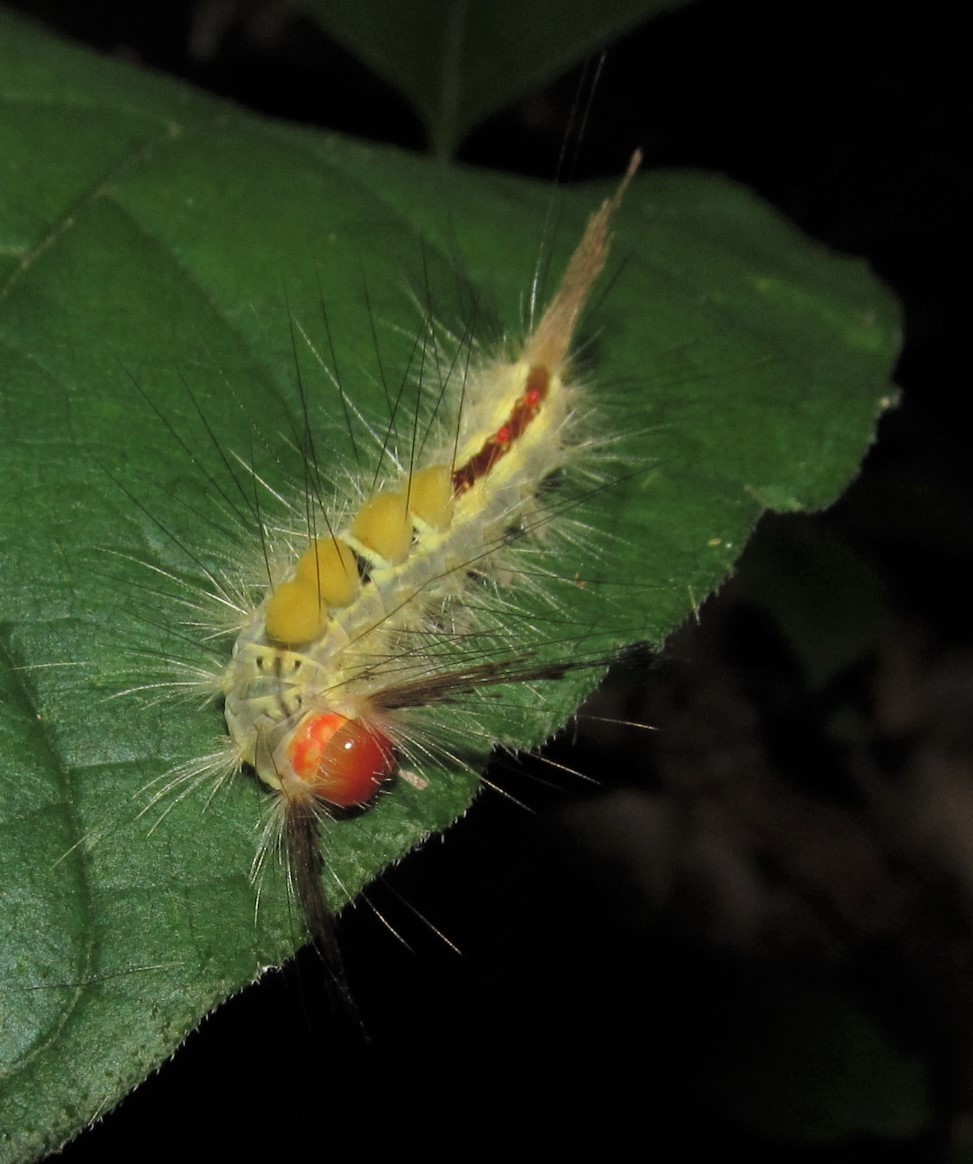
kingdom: Animalia
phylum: Arthropoda
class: Insecta
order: Lepidoptera
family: Erebidae
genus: Orgyia
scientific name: Orgyia leucostigma
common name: White-marked tussock moth
